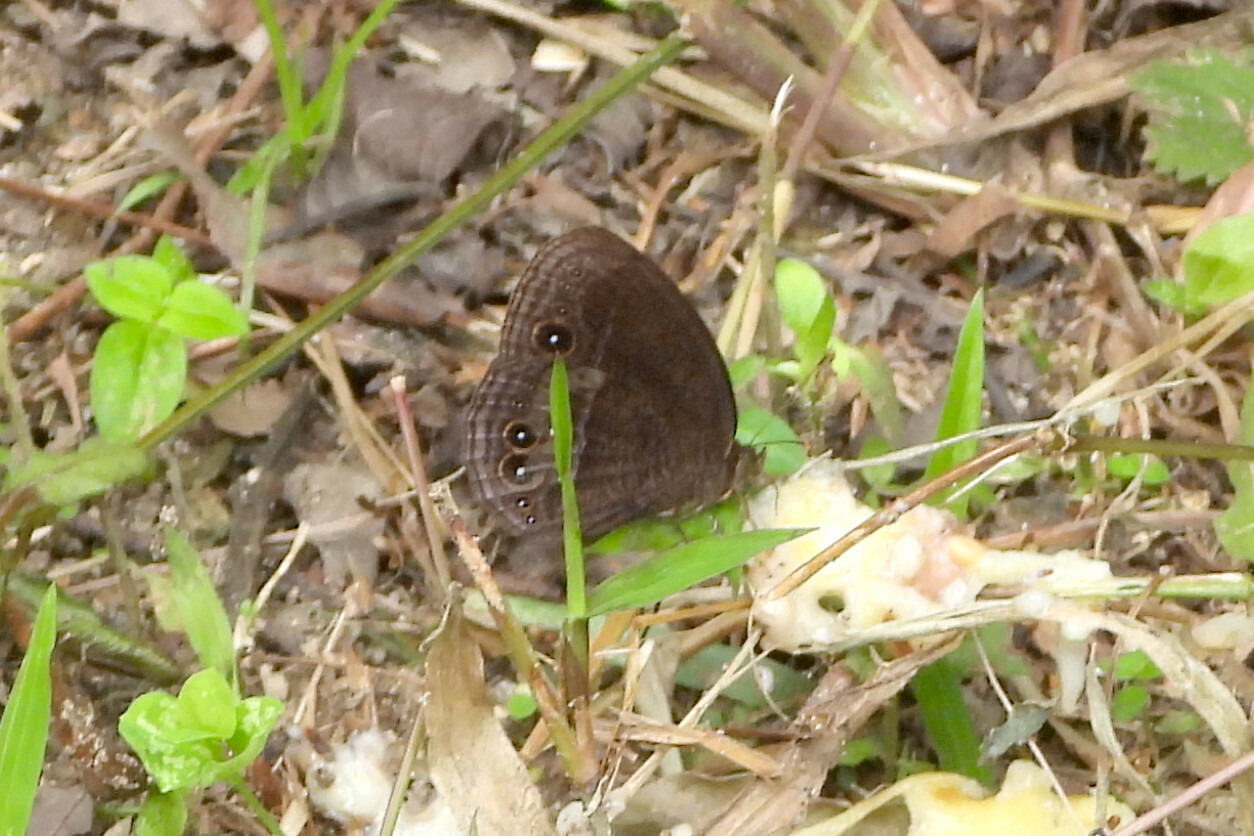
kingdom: Animalia
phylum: Arthropoda
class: Insecta
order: Lepidoptera
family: Nymphalidae
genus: Mycalesis
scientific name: Mycalesis Telinga malsara
